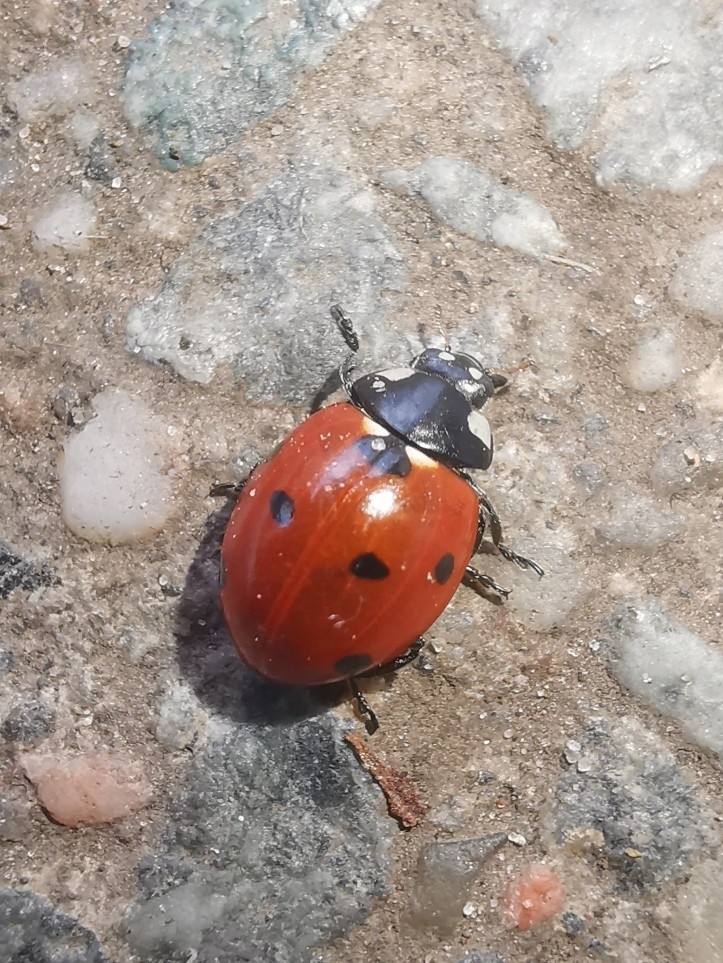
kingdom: Animalia
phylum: Arthropoda
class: Insecta
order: Coleoptera
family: Coccinellidae
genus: Coccinella
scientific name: Coccinella septempunctata
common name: Sevenspotted lady beetle
